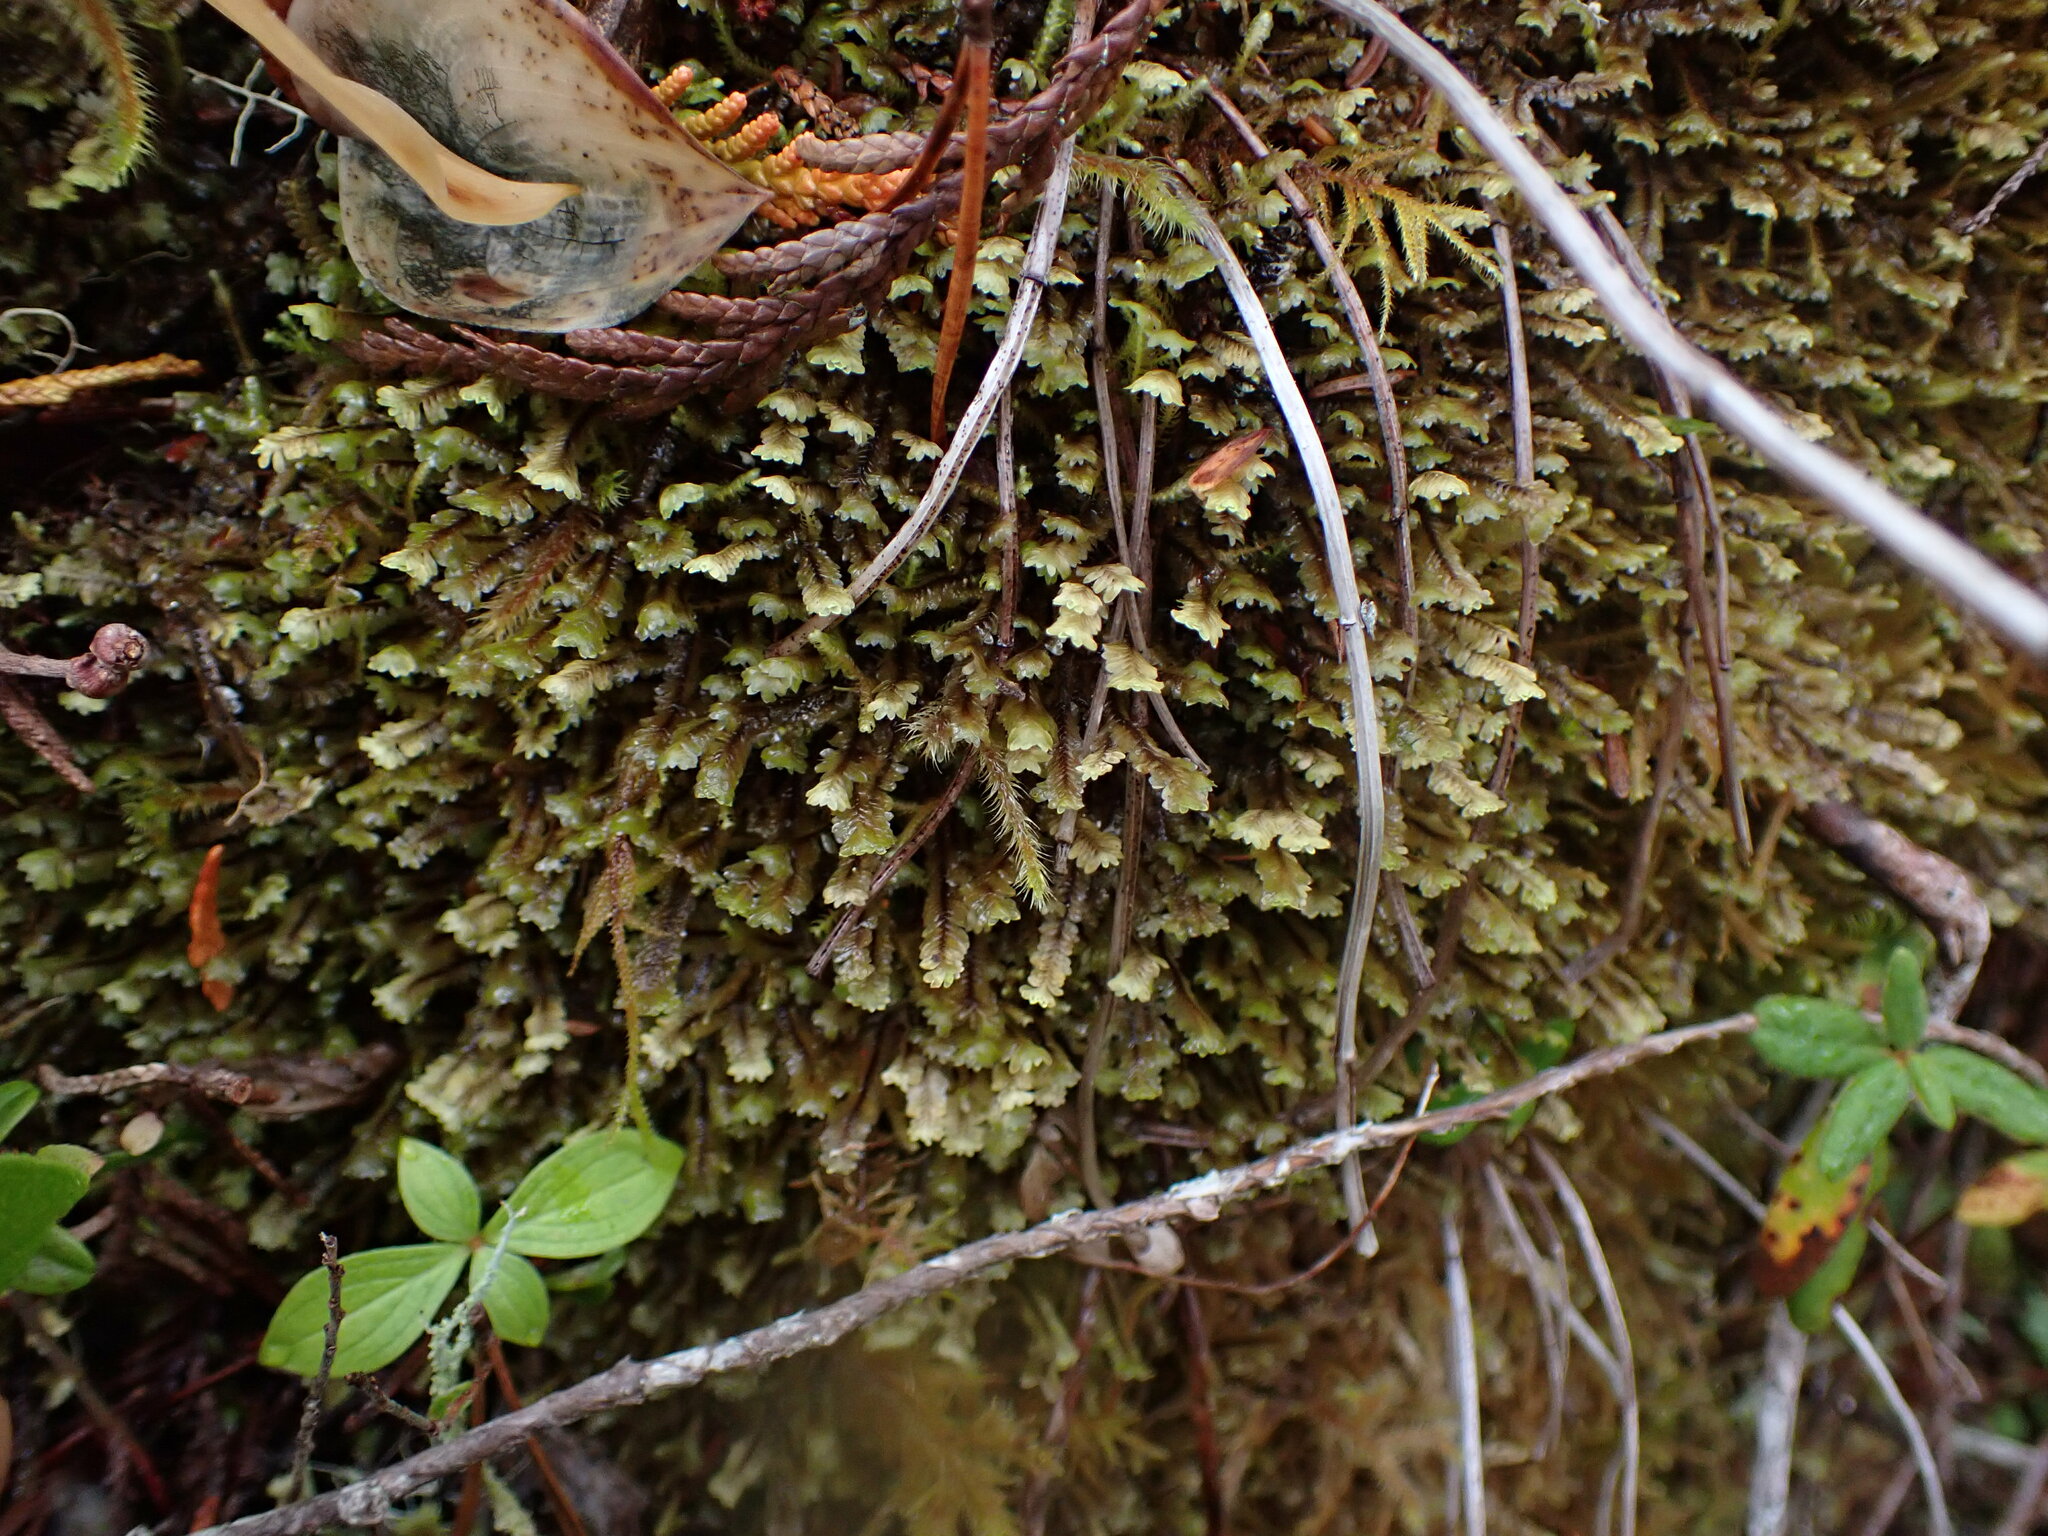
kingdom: Plantae
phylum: Marchantiophyta
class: Jungermanniopsida
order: Jungermanniales
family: Scapaniaceae
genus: Macrodiplophyllum
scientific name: Macrodiplophyllum rubrum
